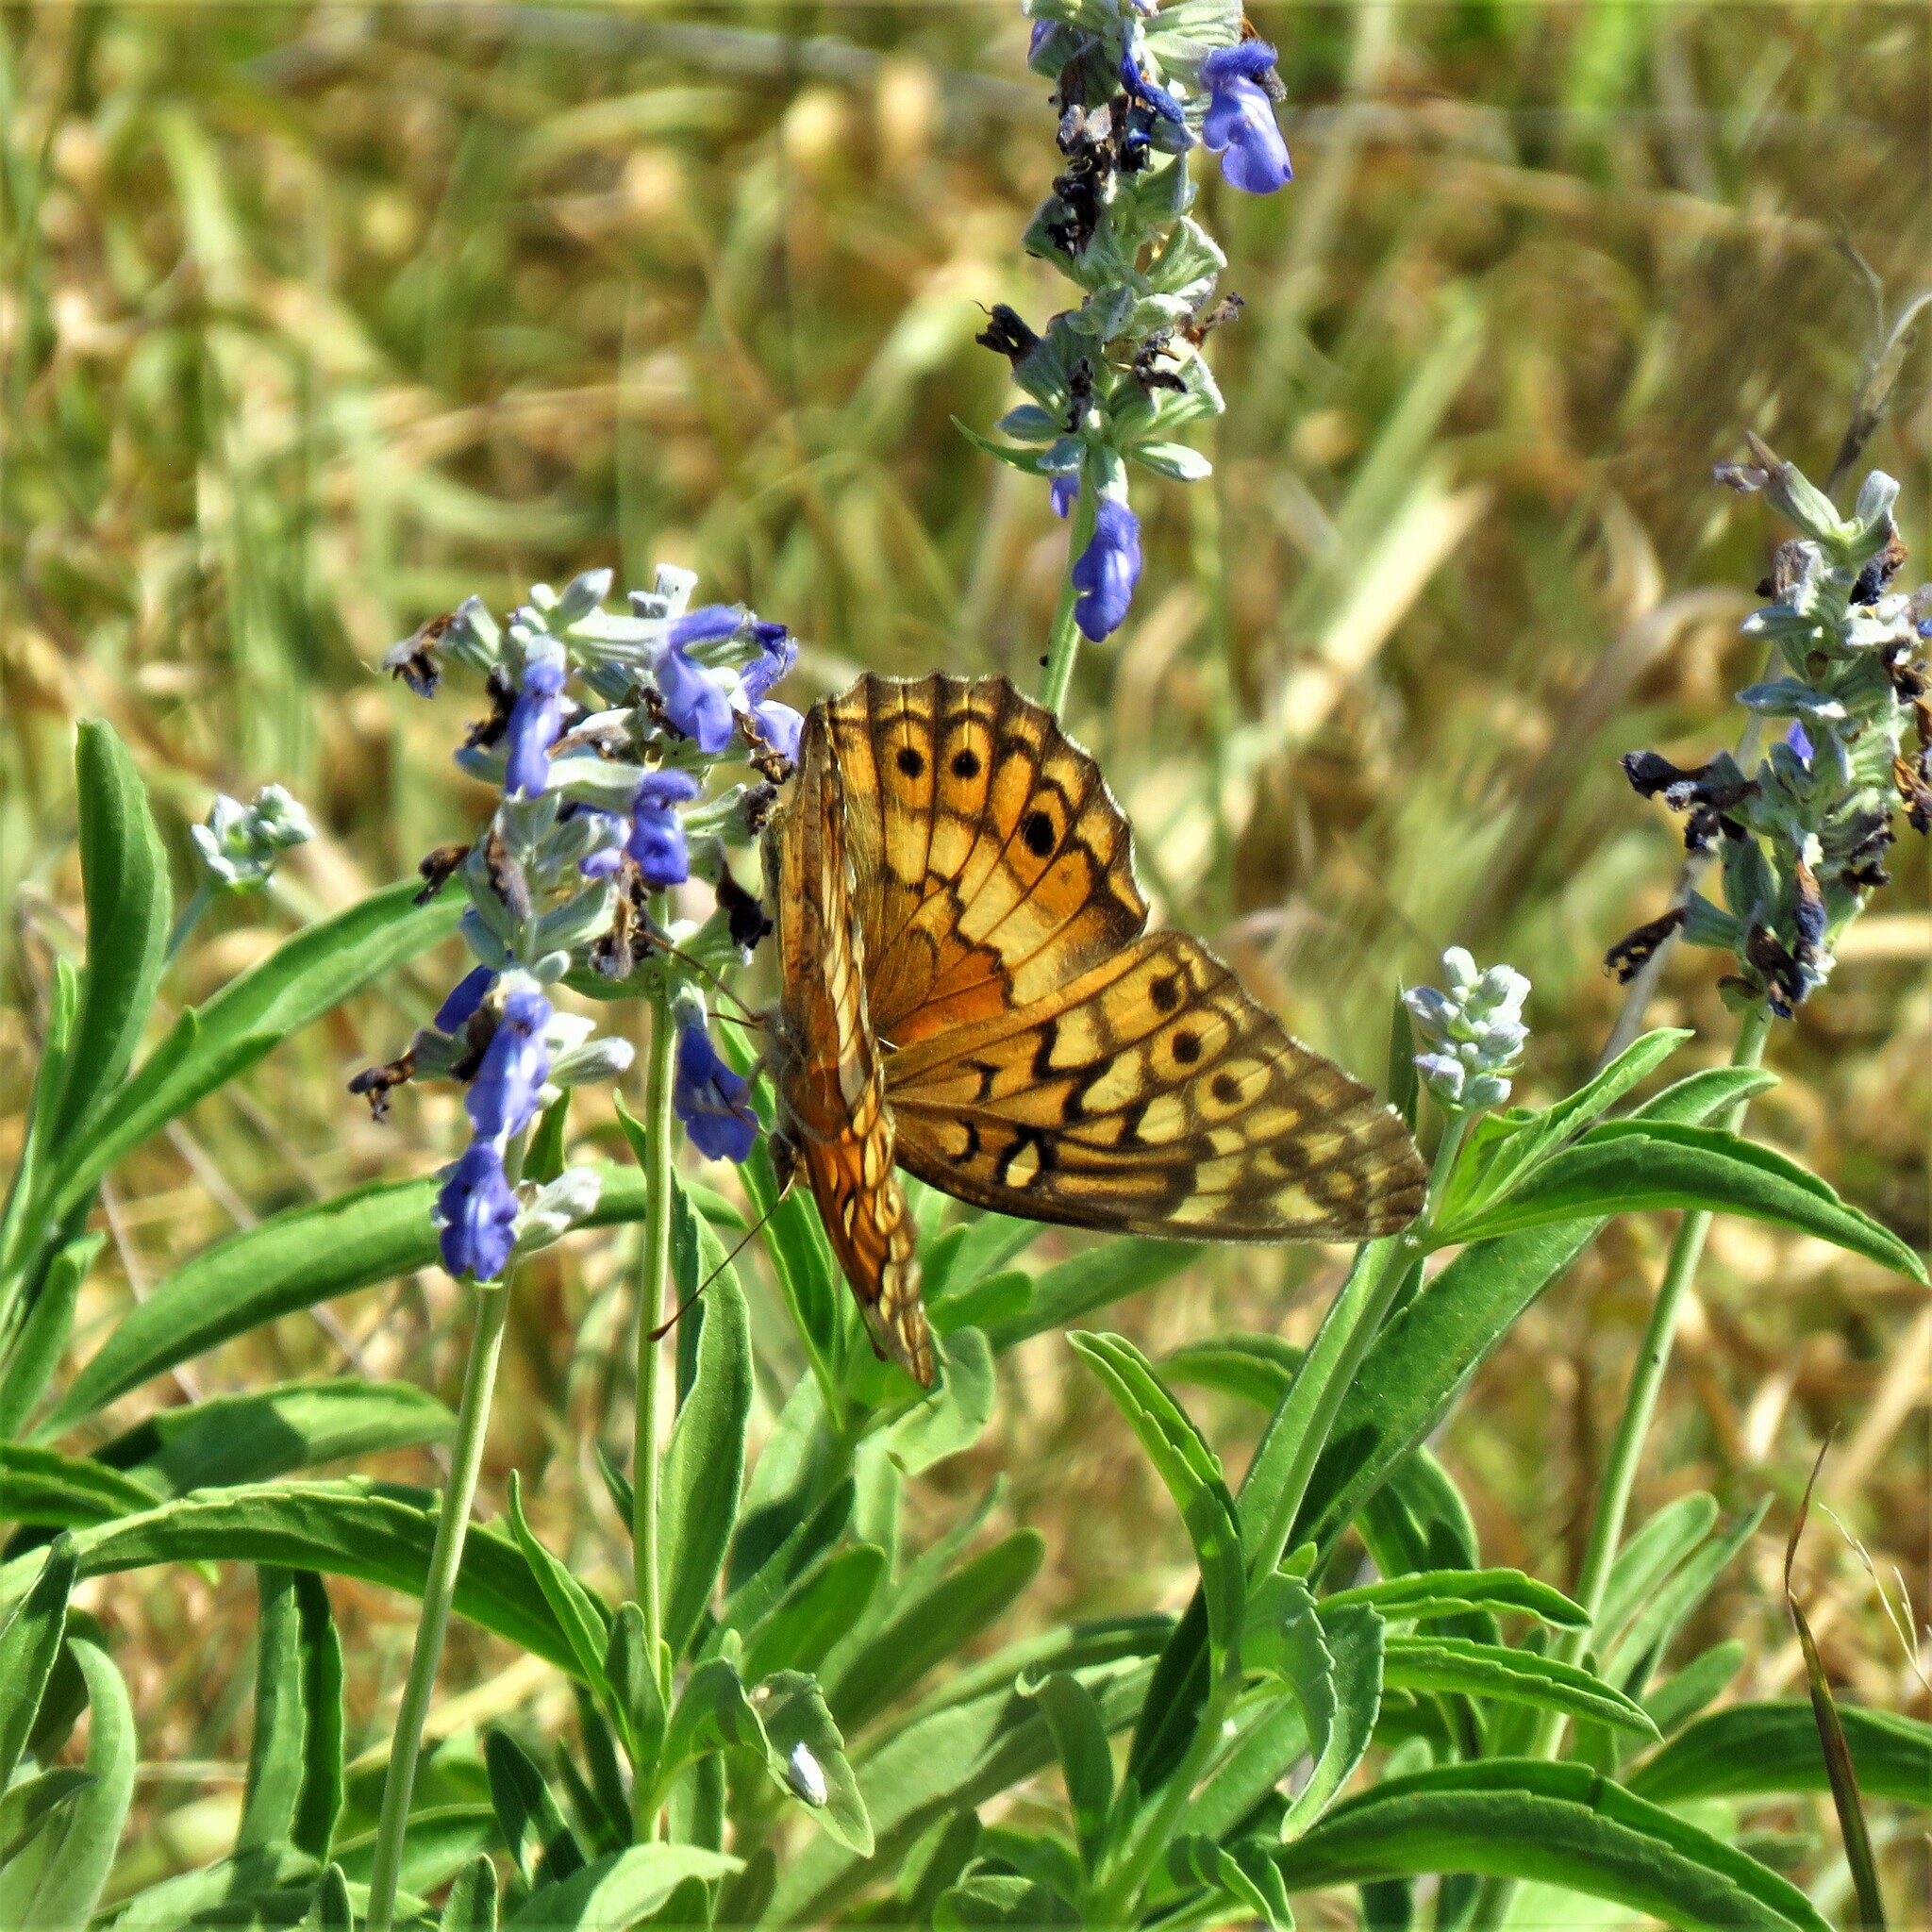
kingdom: Animalia
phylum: Arthropoda
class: Insecta
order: Lepidoptera
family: Nymphalidae
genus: Euptoieta
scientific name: Euptoieta claudia
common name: Variegated fritillary
